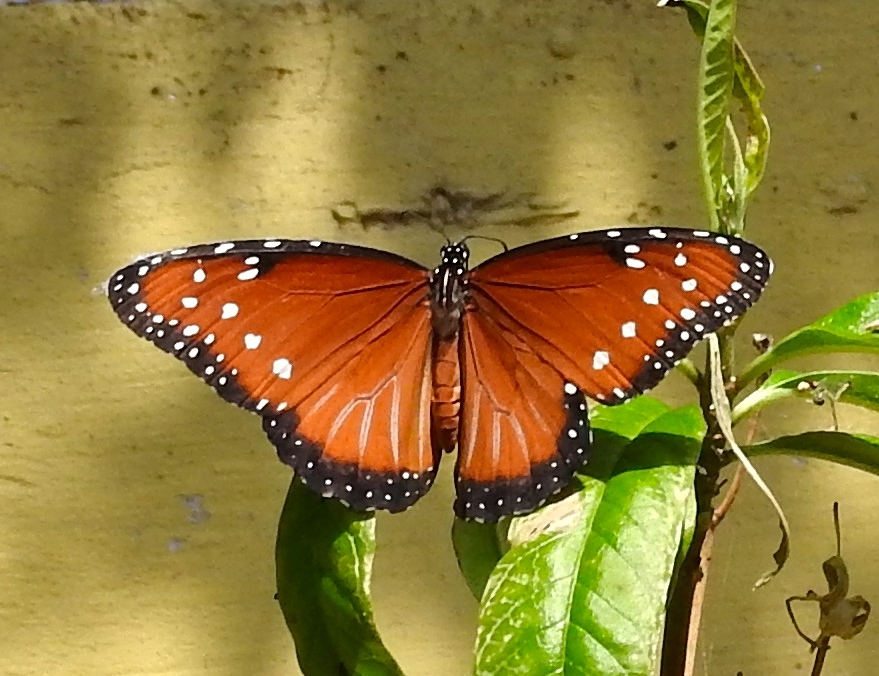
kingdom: Animalia
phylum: Arthropoda
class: Insecta
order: Lepidoptera
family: Nymphalidae
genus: Danaus
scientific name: Danaus gilippus
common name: Queen
